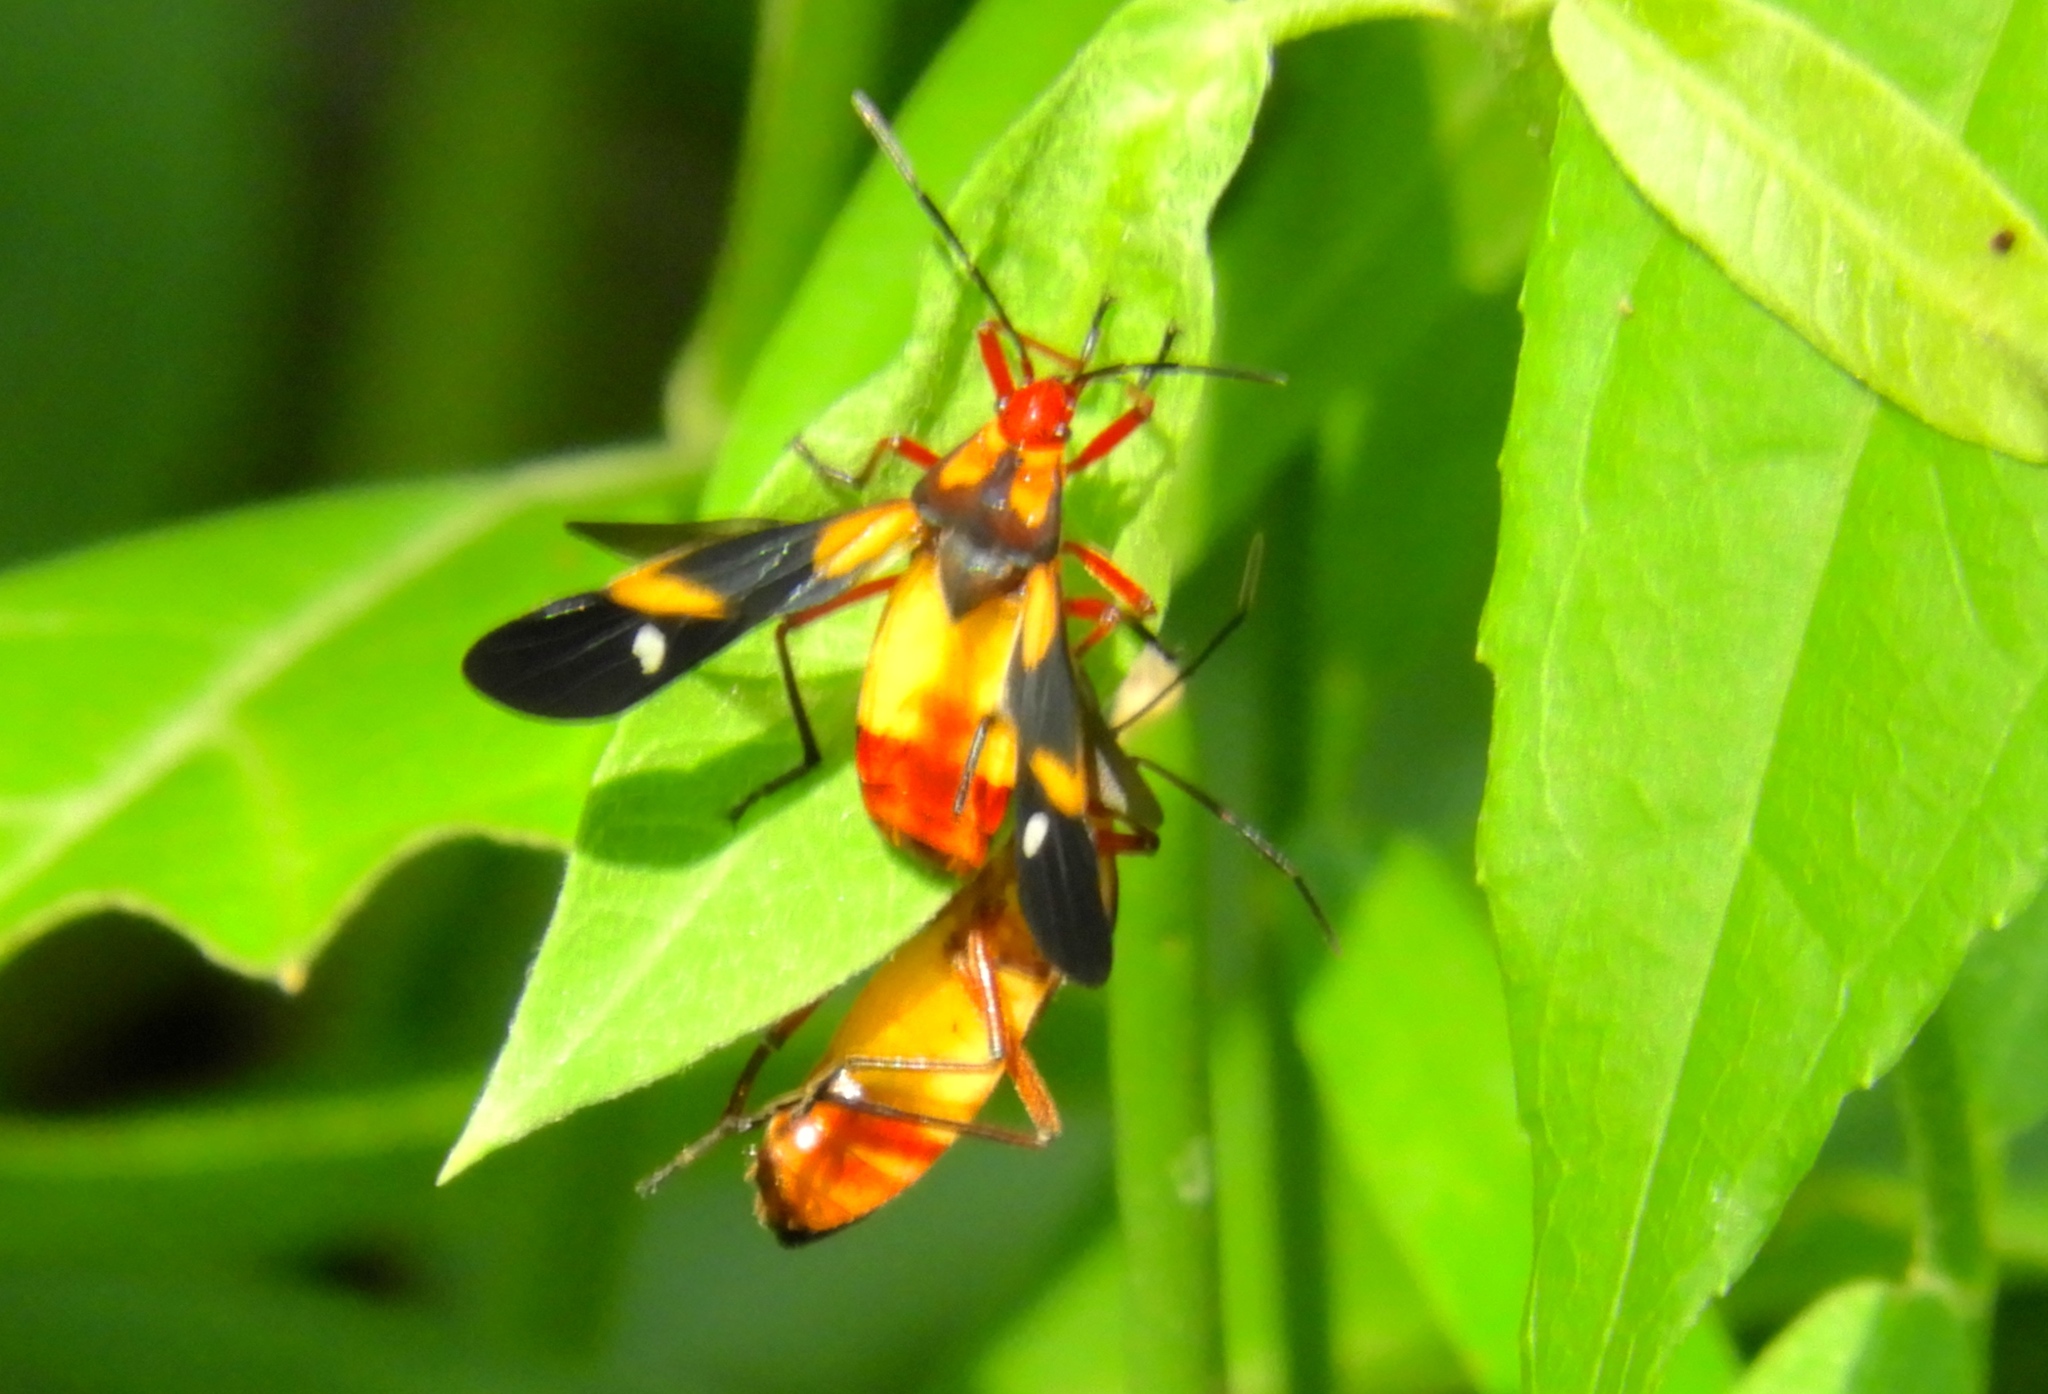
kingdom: Animalia
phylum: Arthropoda
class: Insecta
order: Hemiptera
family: Lygaeidae
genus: Oncopeltus
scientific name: Oncopeltus guttaloides
